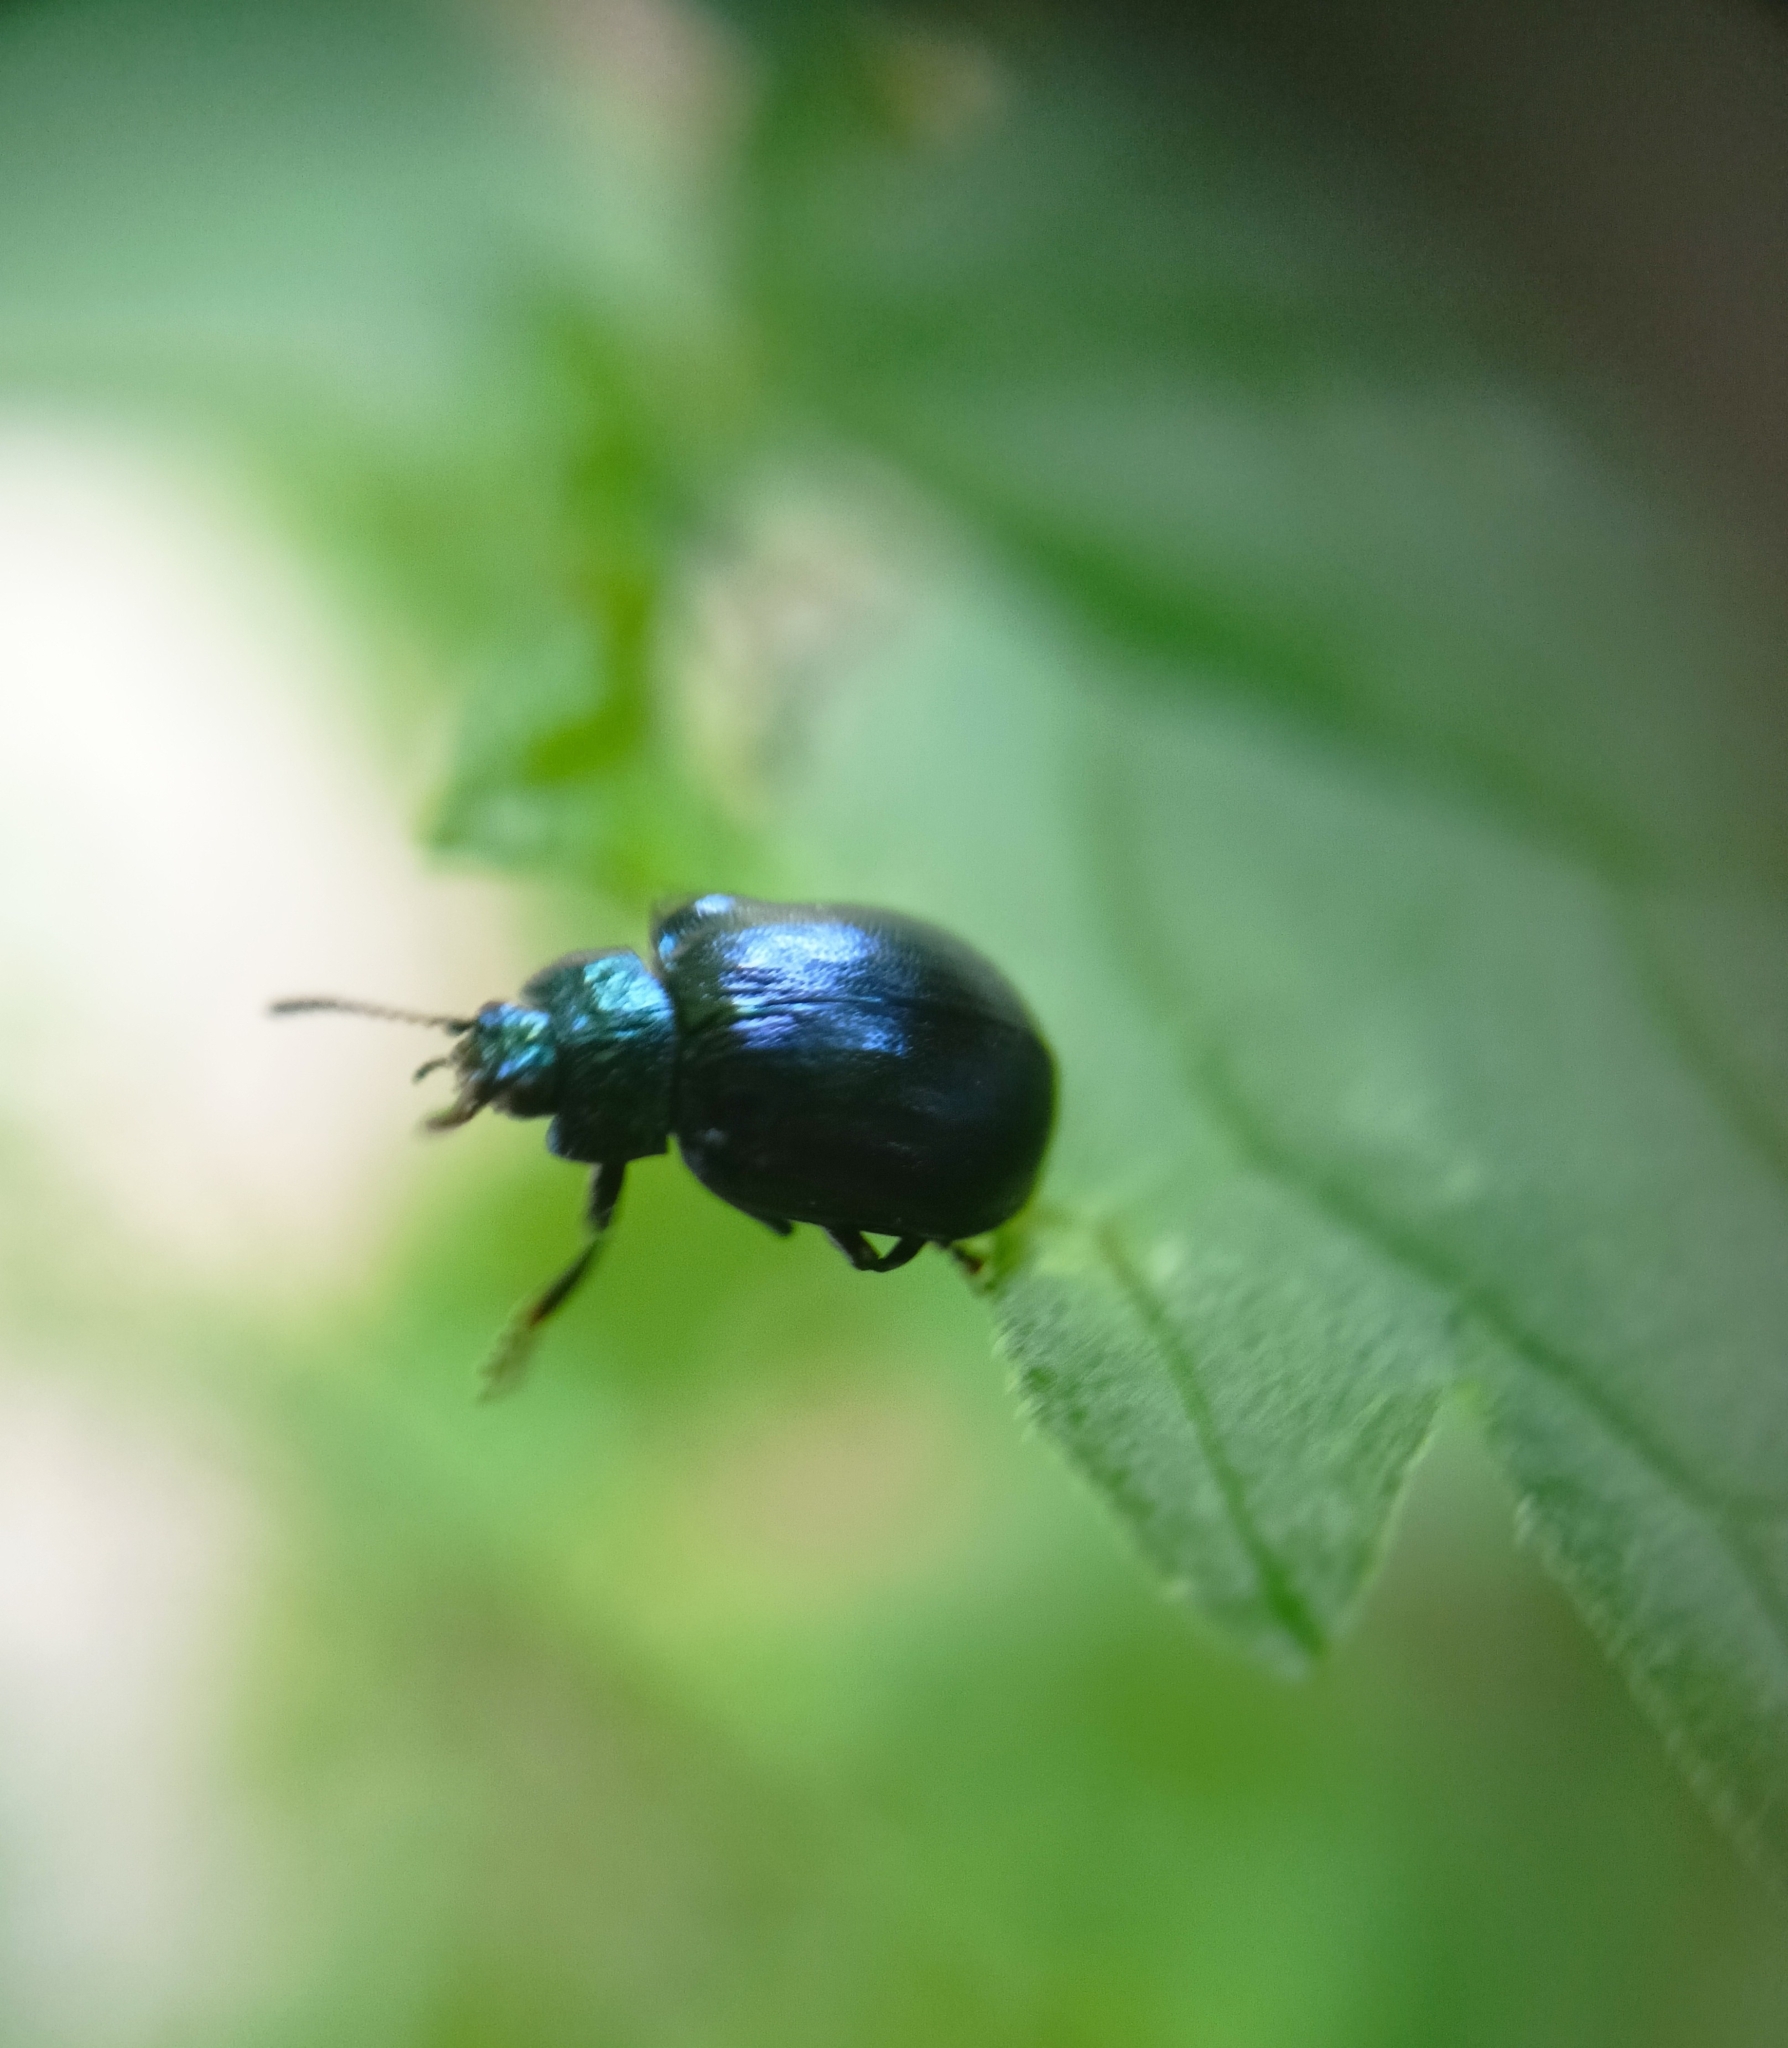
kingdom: Animalia
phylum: Arthropoda
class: Insecta
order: Coleoptera
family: Chrysomelidae
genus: Plagiosterna
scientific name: Plagiosterna aenea
